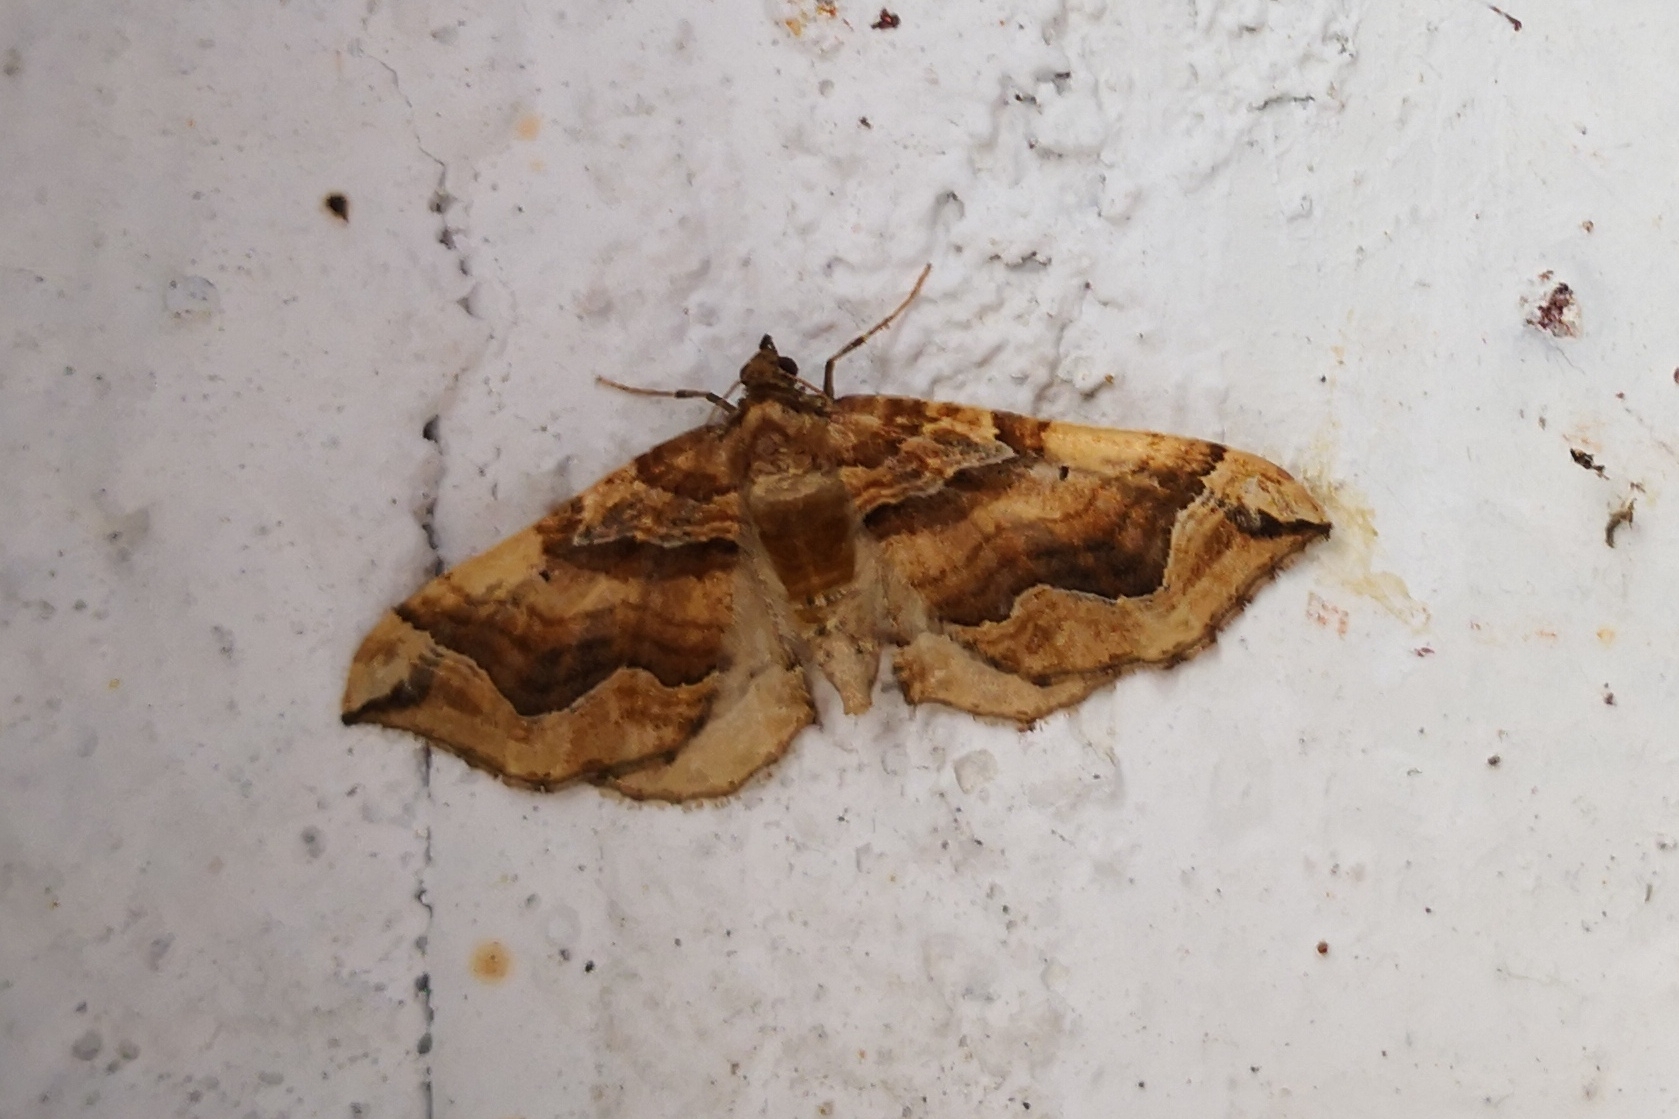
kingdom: Animalia
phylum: Arthropoda
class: Insecta
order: Lepidoptera
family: Geometridae
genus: Pelurga
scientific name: Pelurga comitata
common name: Dark spinach
